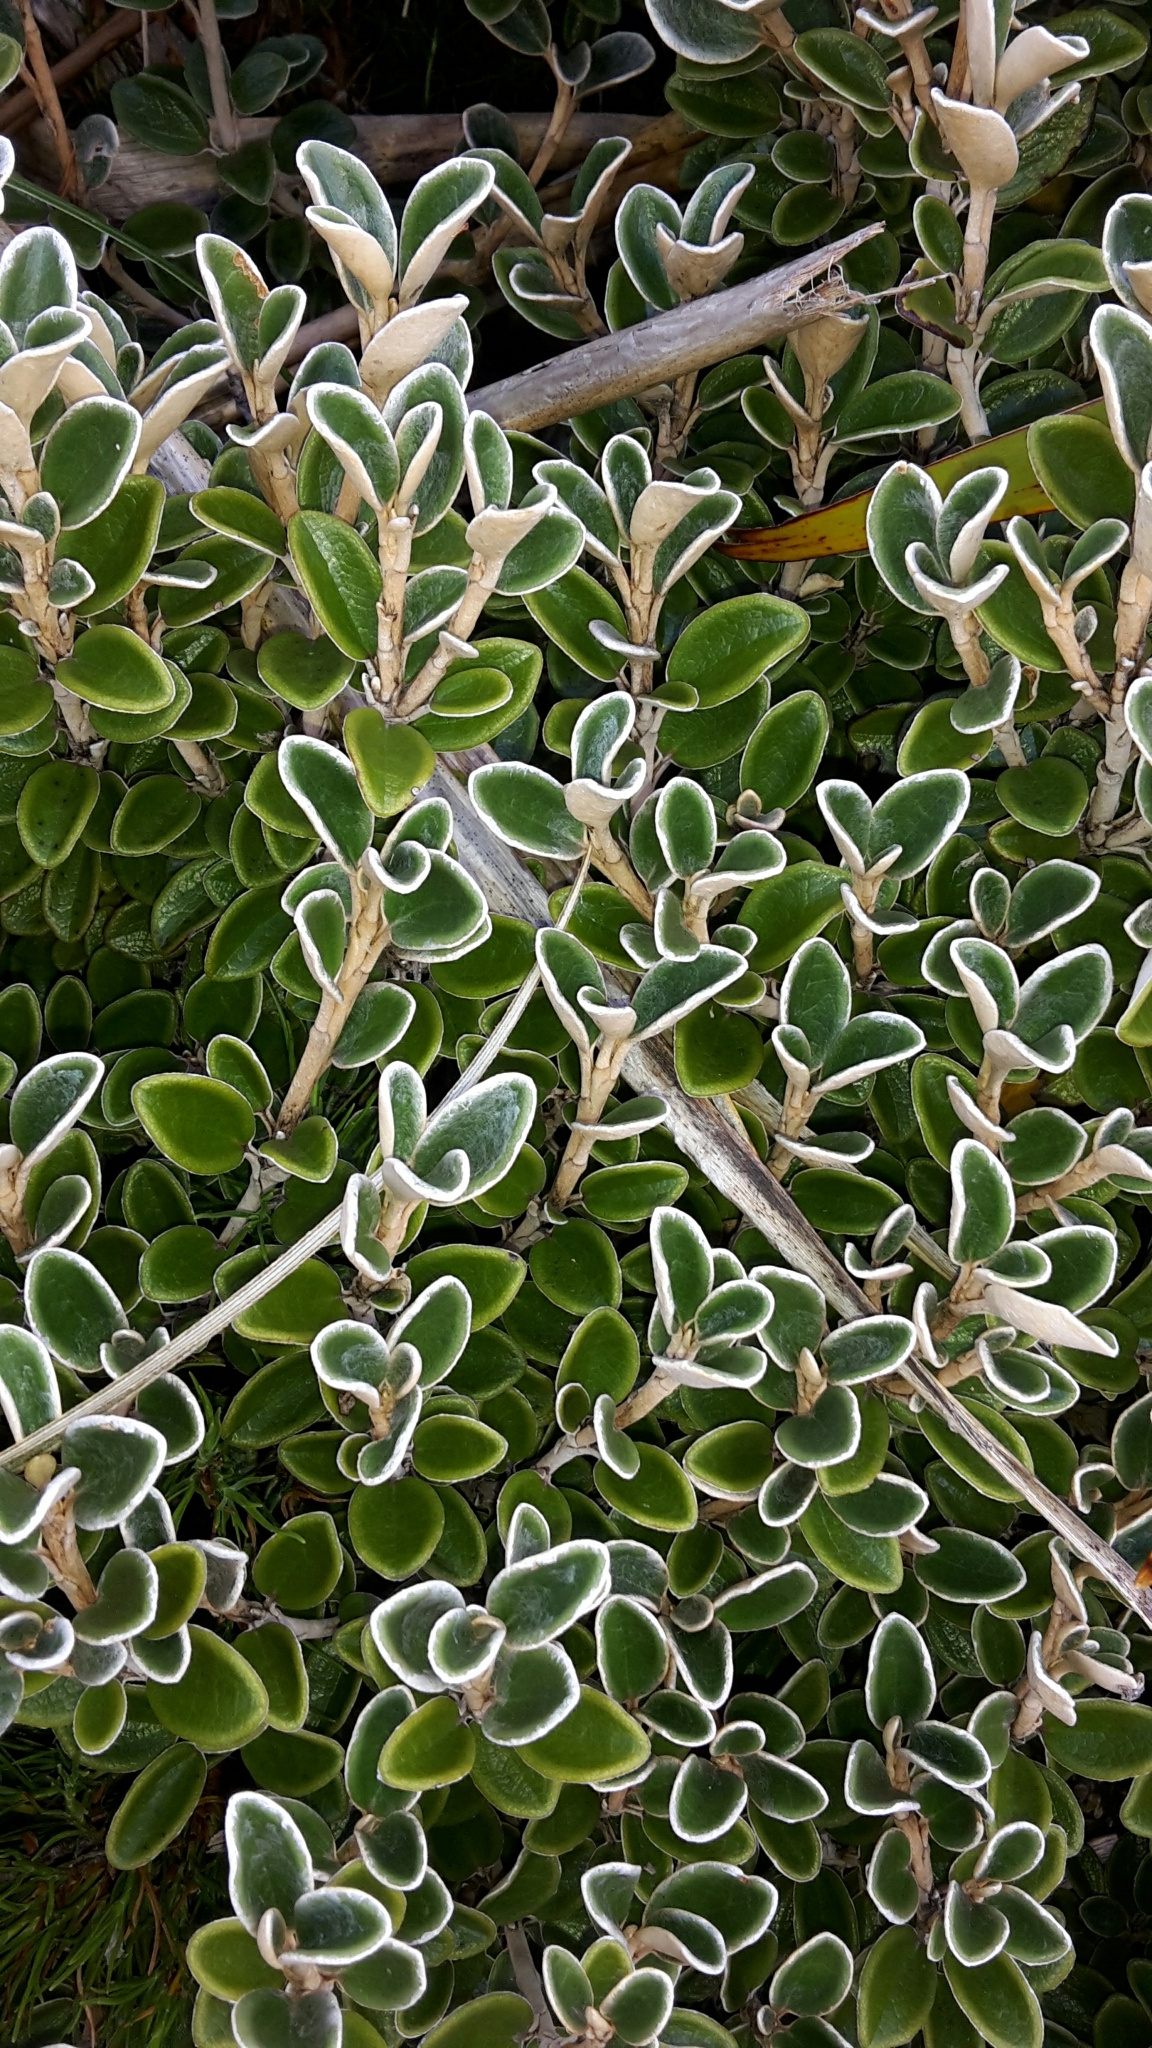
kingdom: Plantae
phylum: Tracheophyta
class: Magnoliopsida
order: Asterales
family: Asteraceae
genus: Brachyglottis
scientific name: Brachyglottis bidwillii
